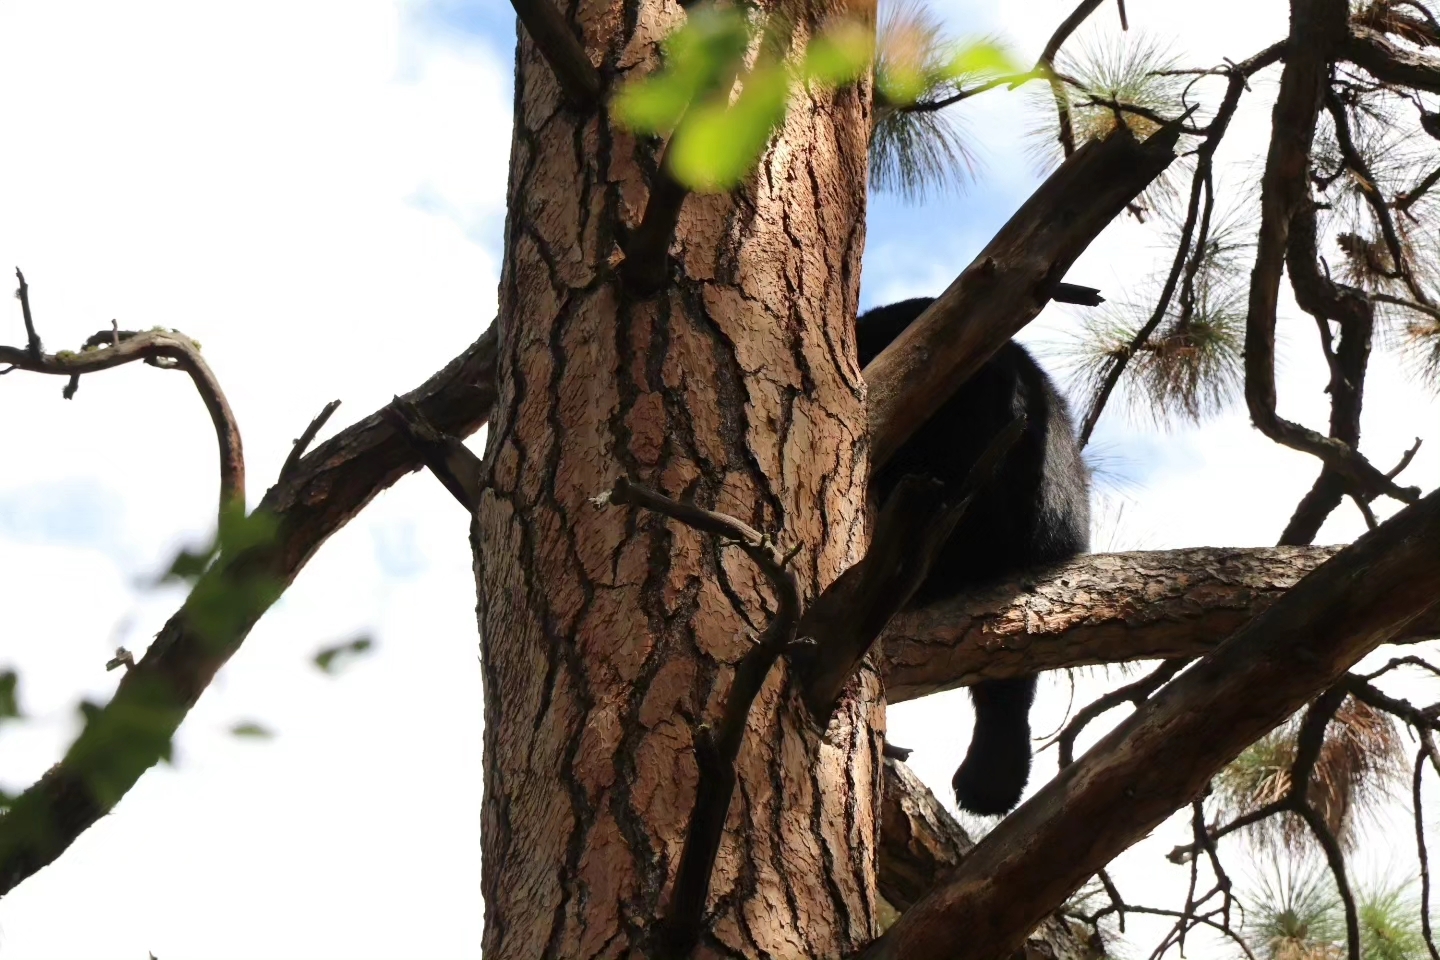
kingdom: Animalia
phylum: Chordata
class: Mammalia
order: Carnivora
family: Ursidae
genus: Ursus
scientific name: Ursus americanus
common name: American black bear
